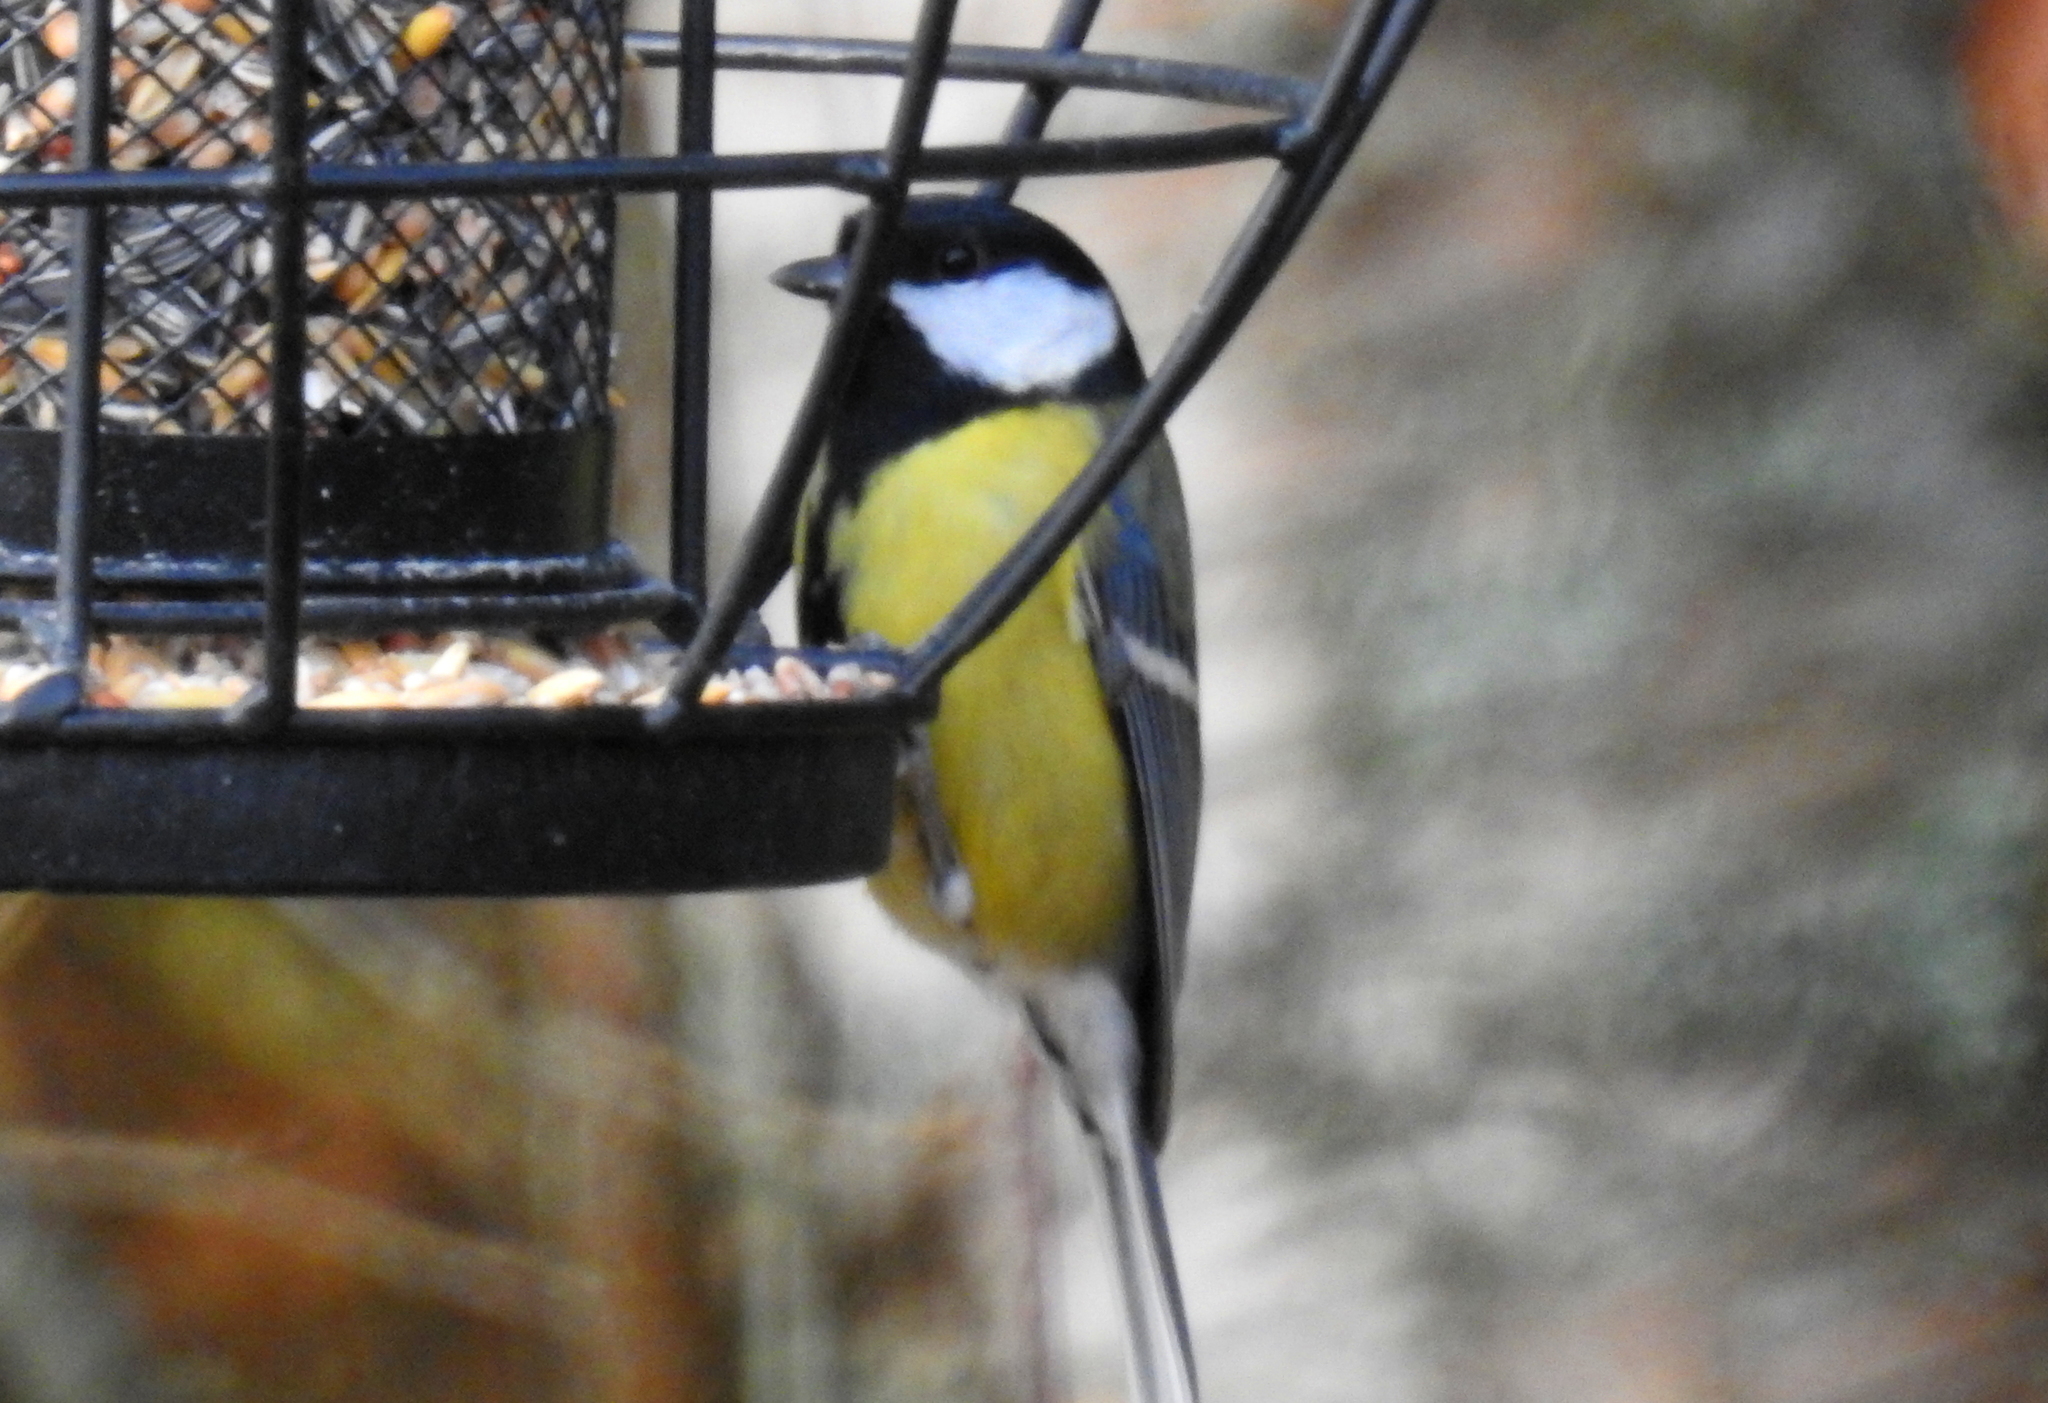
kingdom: Animalia
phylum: Chordata
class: Aves
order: Passeriformes
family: Paridae
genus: Parus
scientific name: Parus major
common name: Great tit
